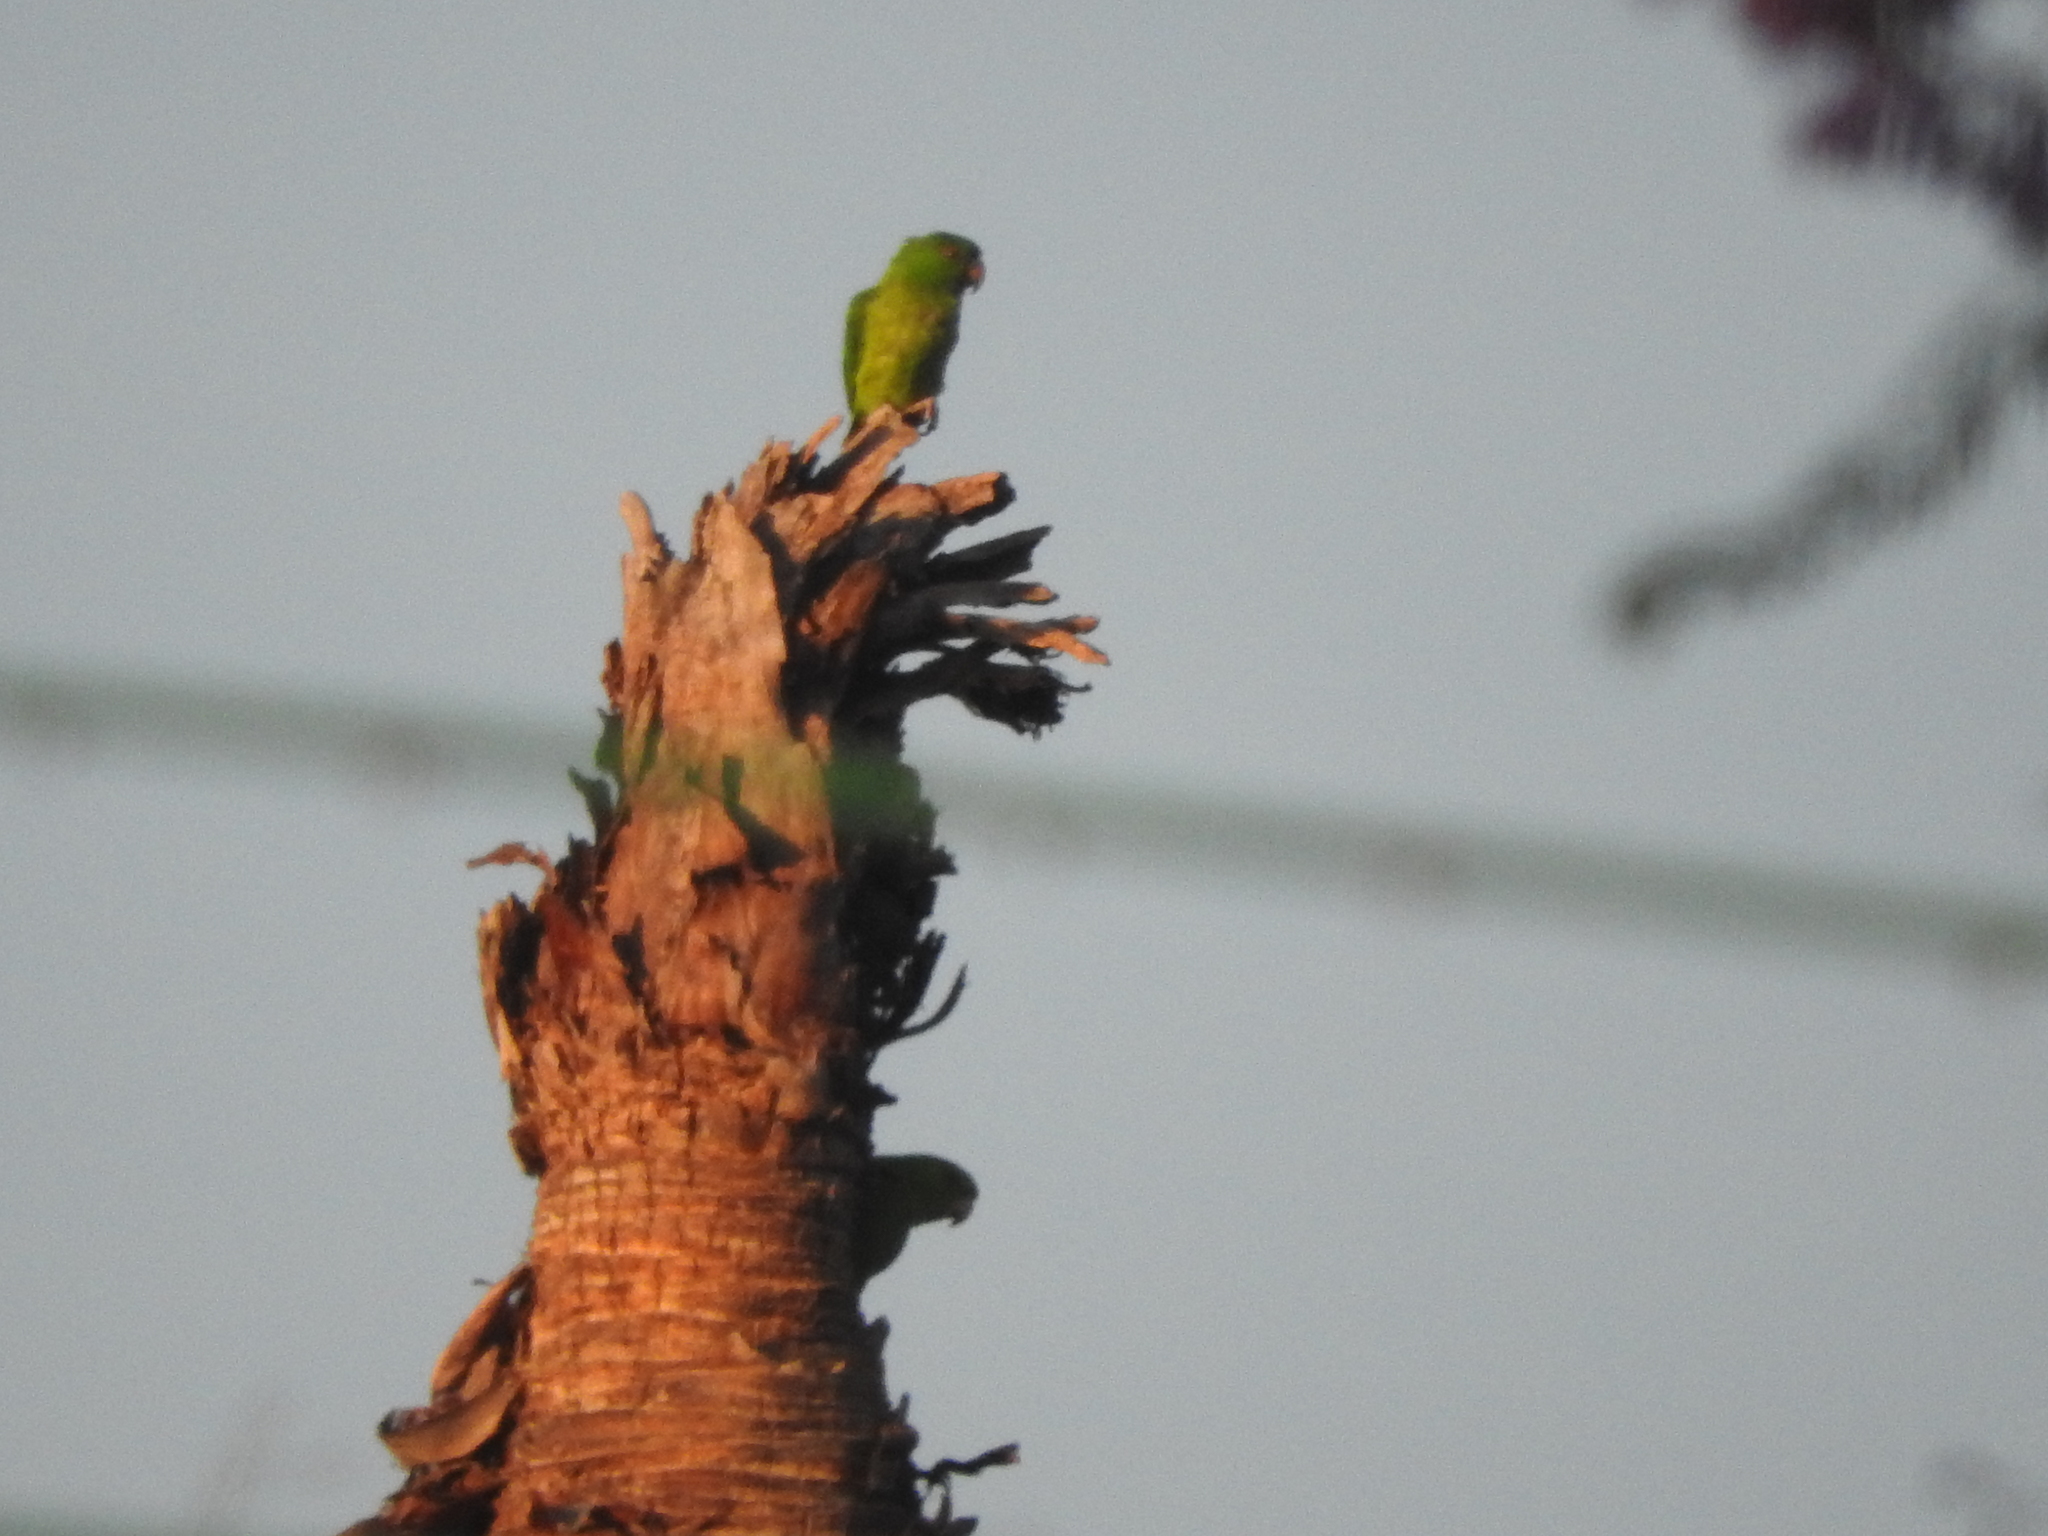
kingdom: Animalia
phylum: Chordata
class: Aves
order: Psittaciformes
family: Psittacidae
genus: Aratinga
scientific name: Aratinga holochlora
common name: Green parakeet
